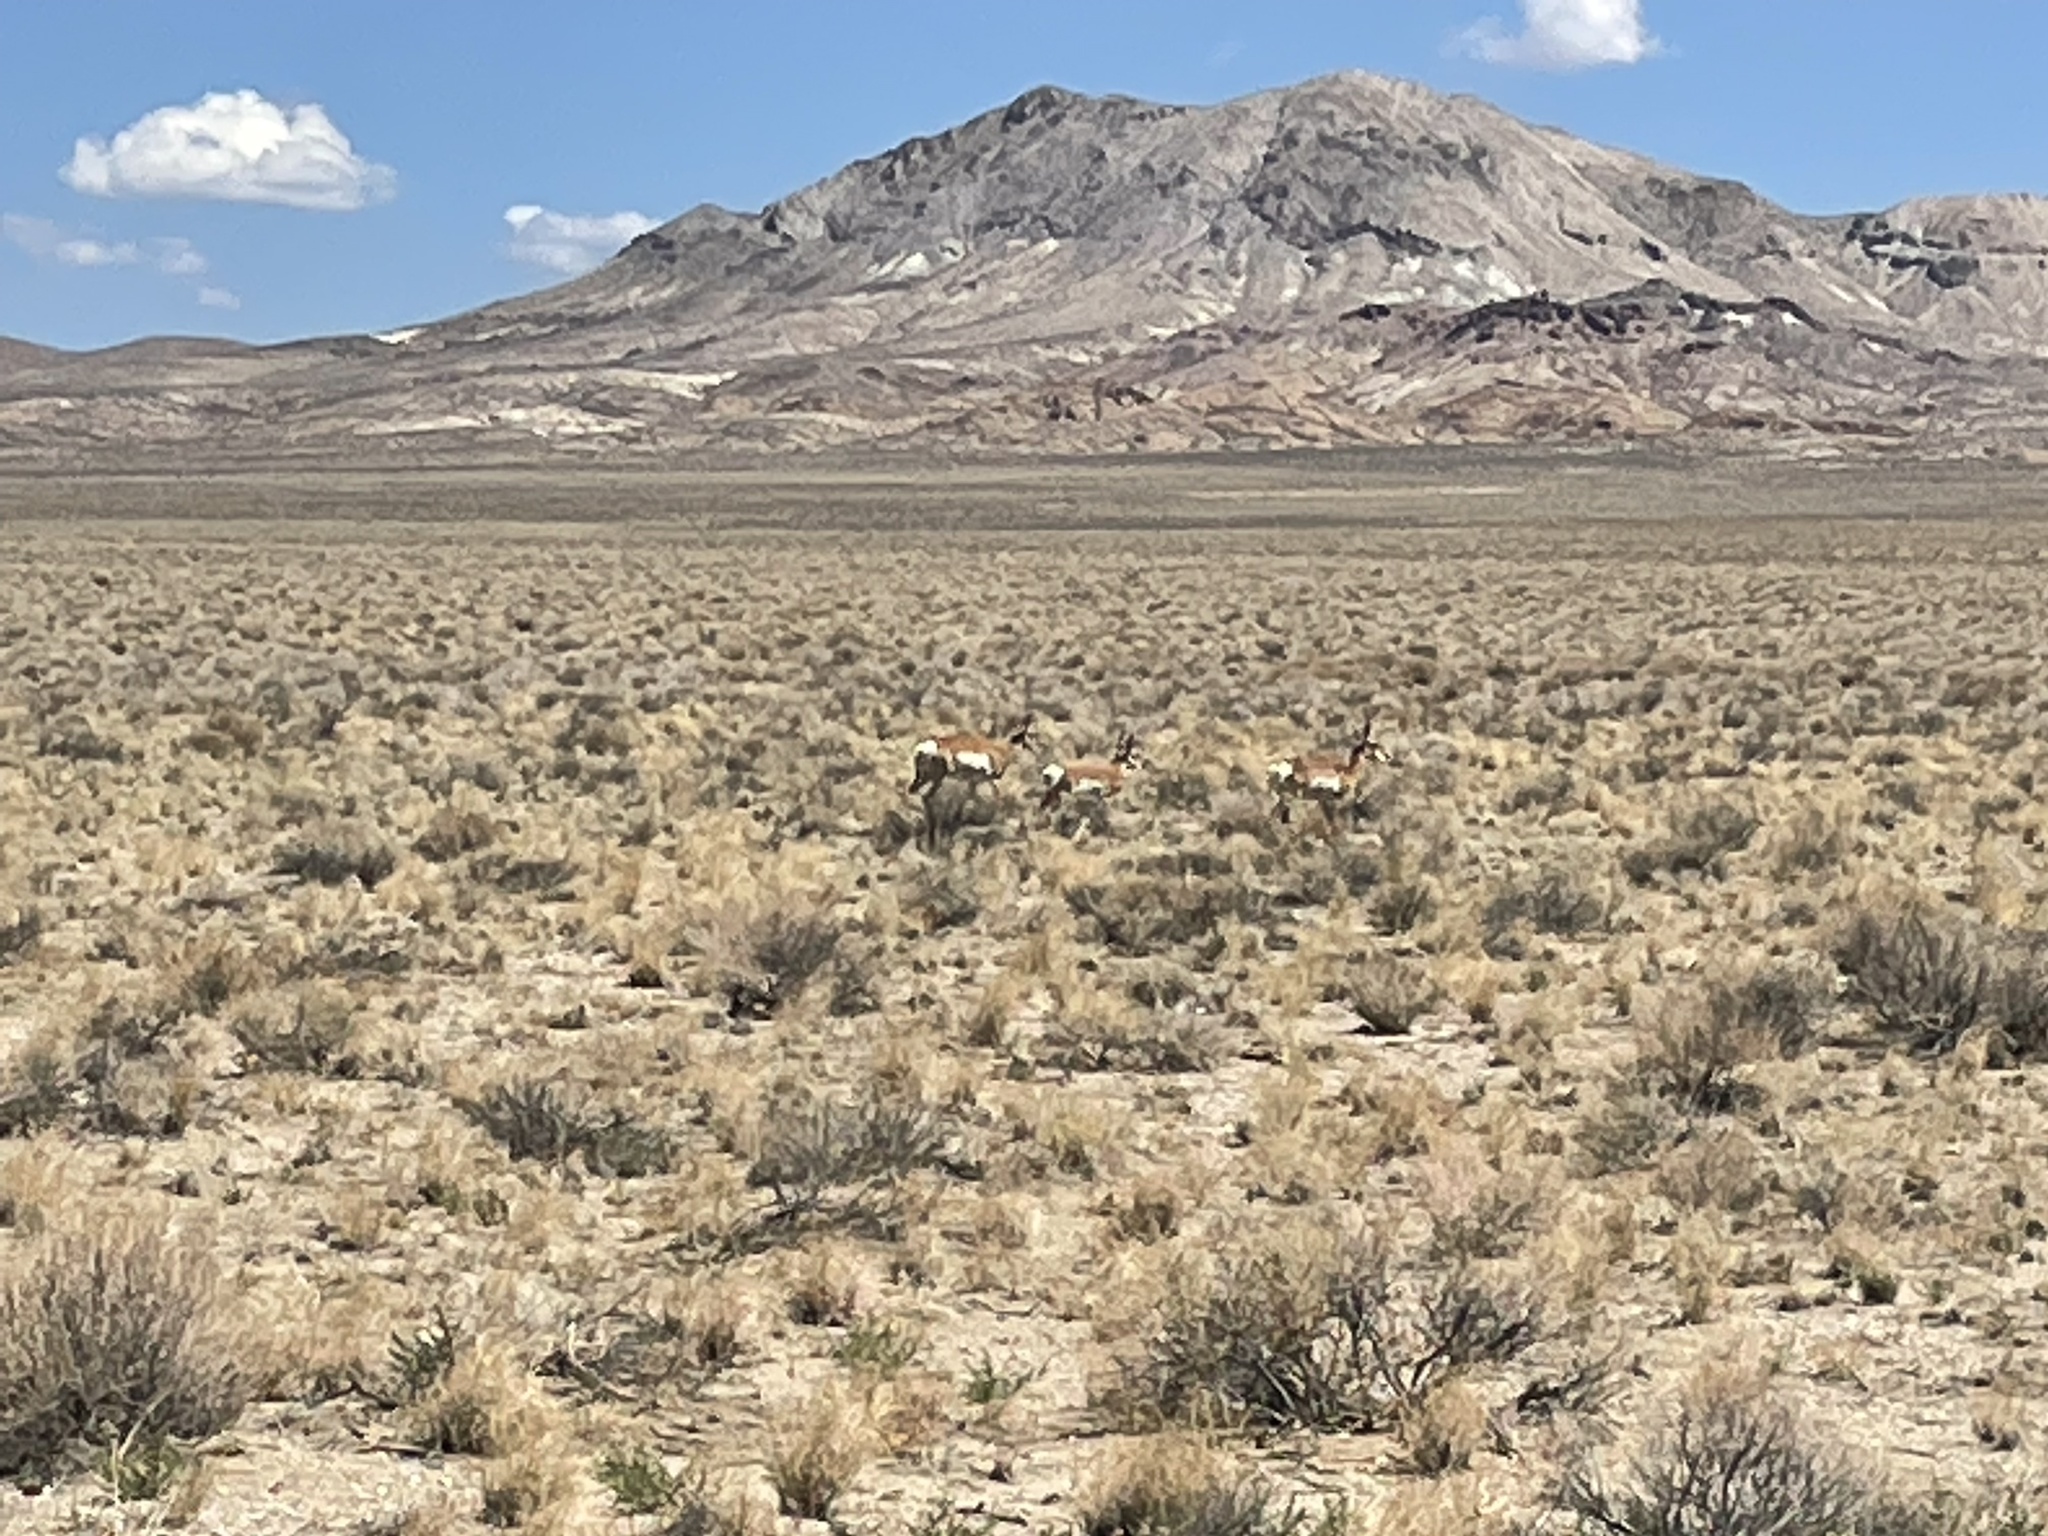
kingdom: Animalia
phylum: Chordata
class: Mammalia
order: Artiodactyla
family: Antilocapridae
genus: Antilocapra
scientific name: Antilocapra americana
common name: Pronghorn
